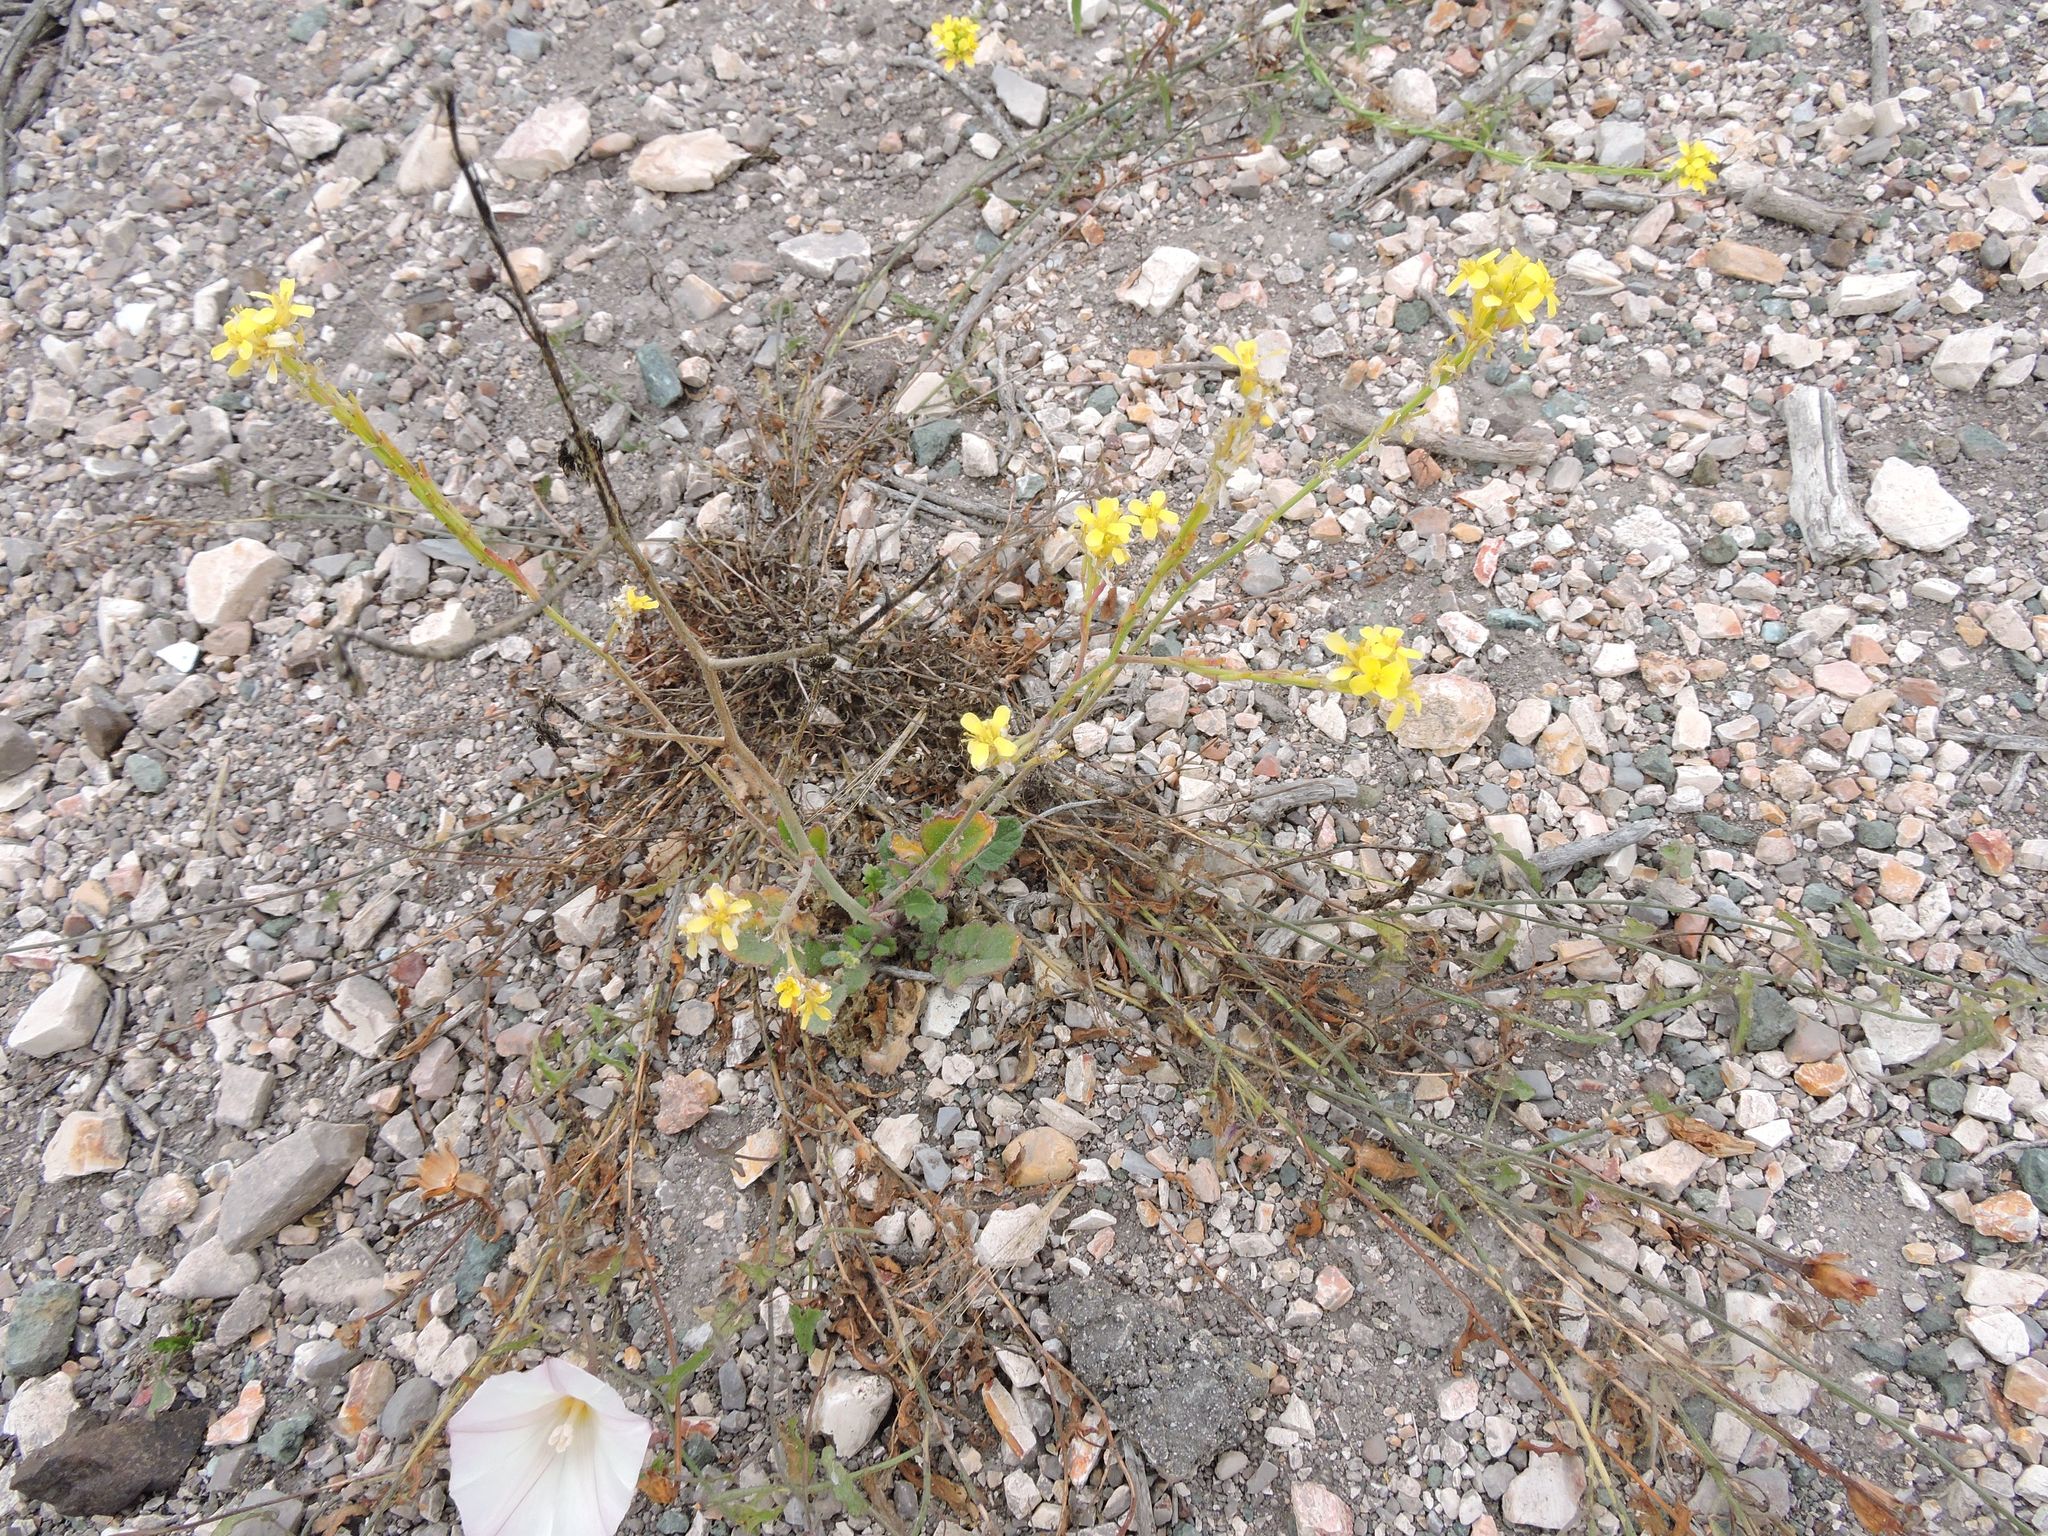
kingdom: Plantae
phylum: Tracheophyta
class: Magnoliopsida
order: Brassicales
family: Brassicaceae
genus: Hirschfeldia
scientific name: Hirschfeldia incana
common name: Hoary mustard
